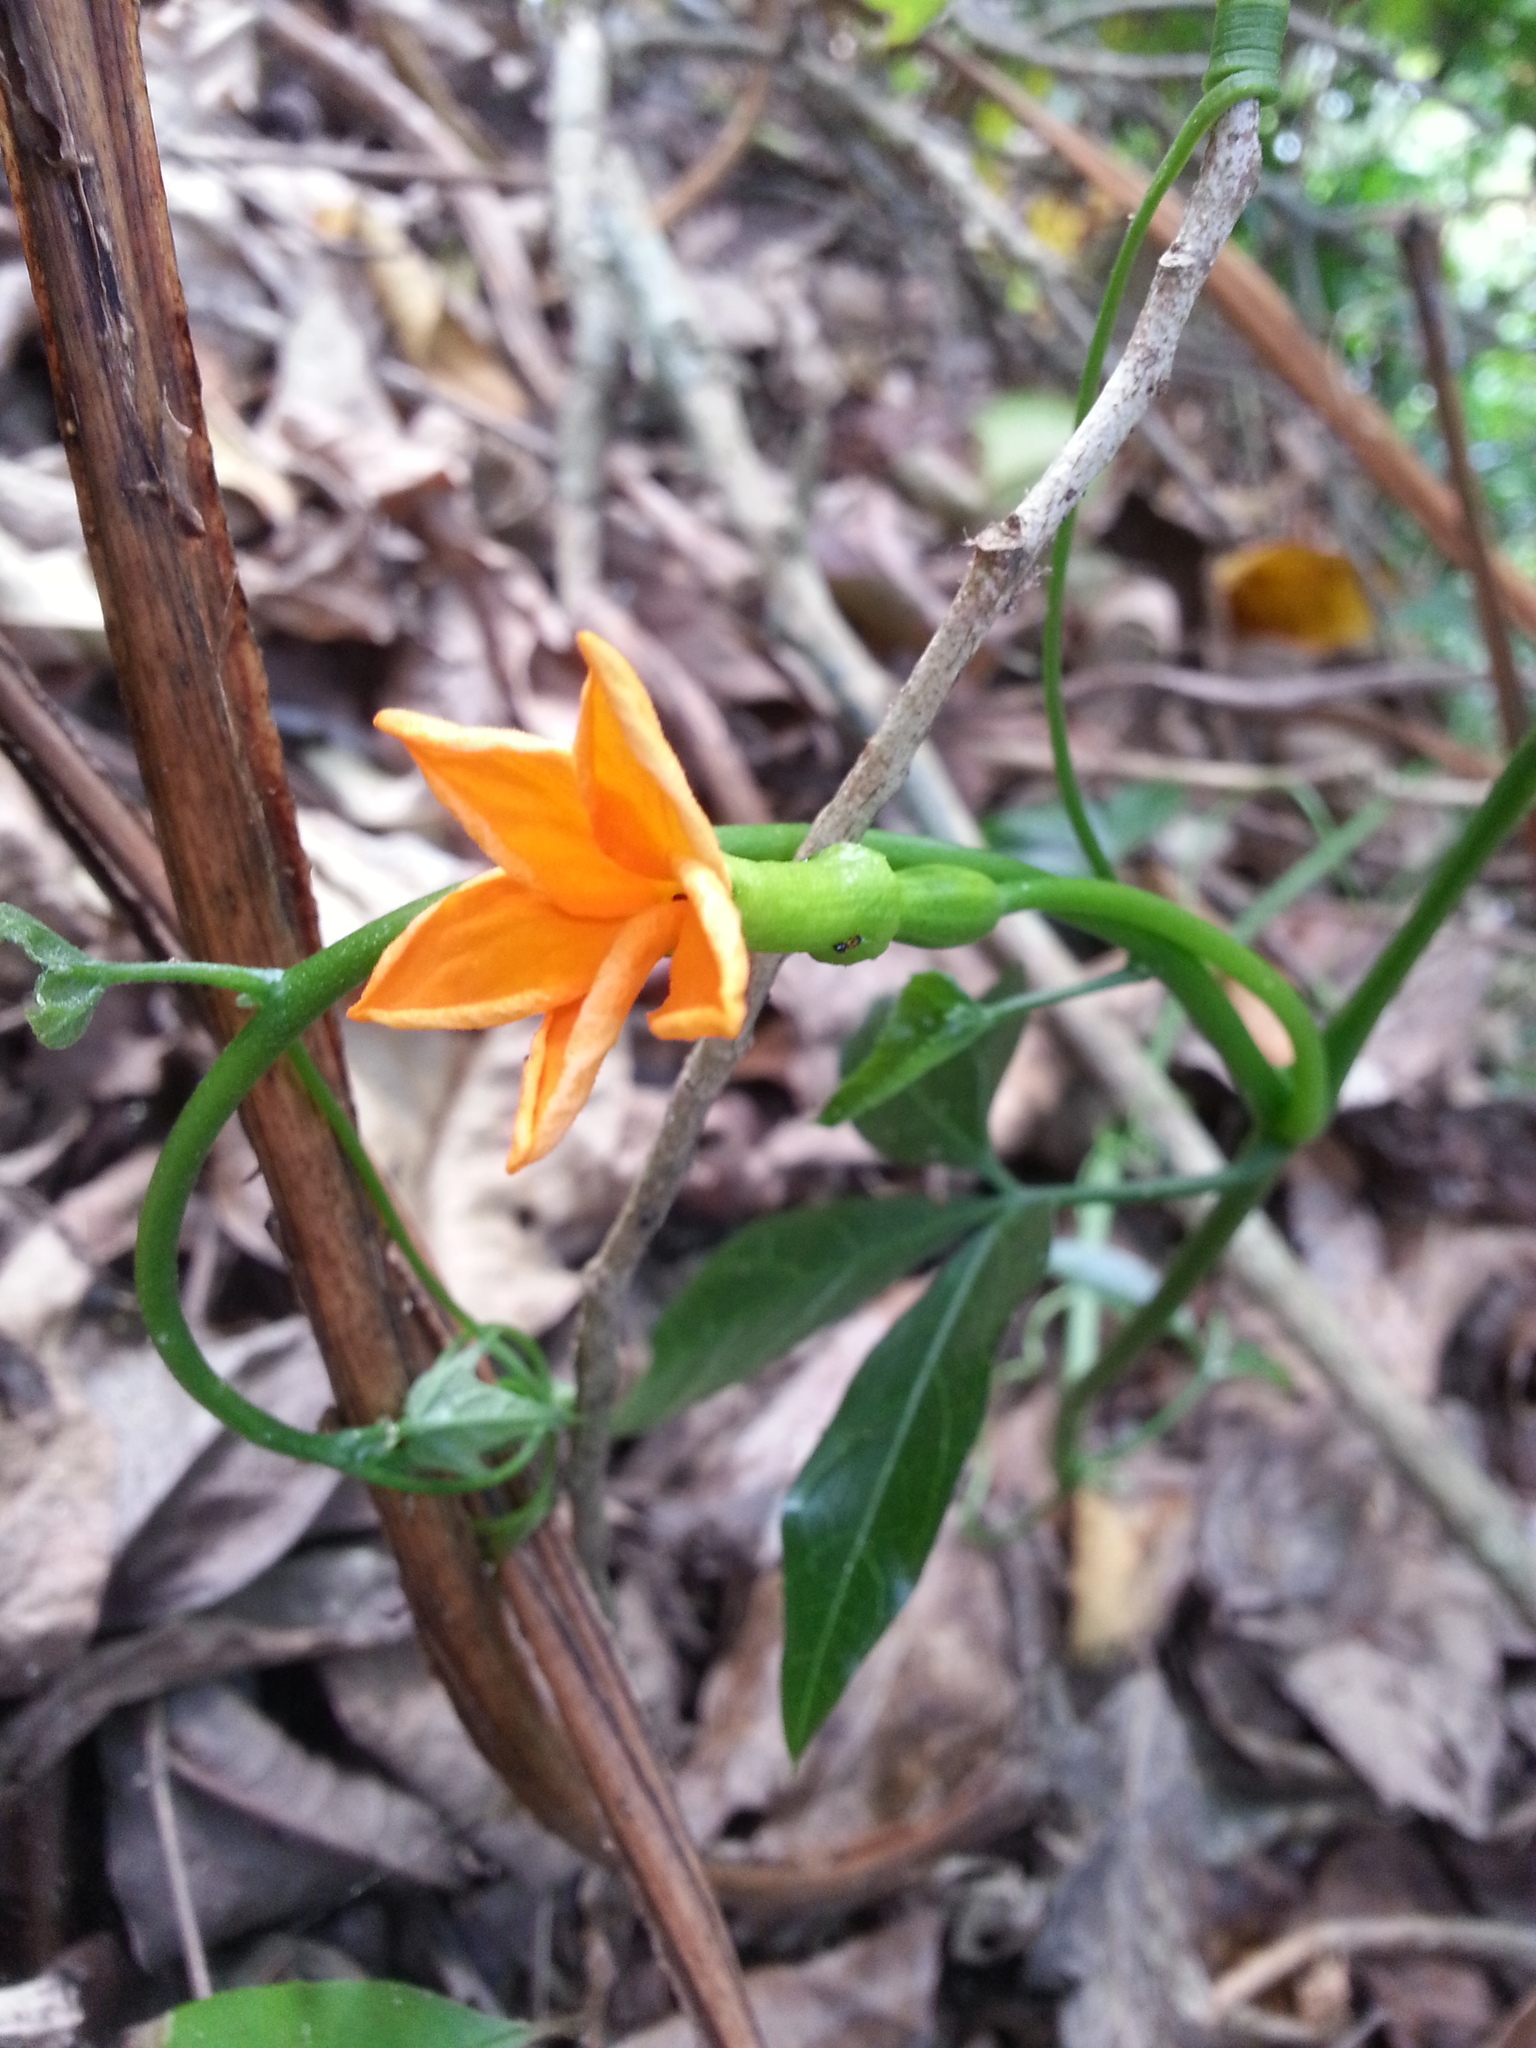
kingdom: Plantae
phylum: Tracheophyta
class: Magnoliopsida
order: Cucurbitales
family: Cucurbitaceae
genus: Psiguria
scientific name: Psiguria pedata
